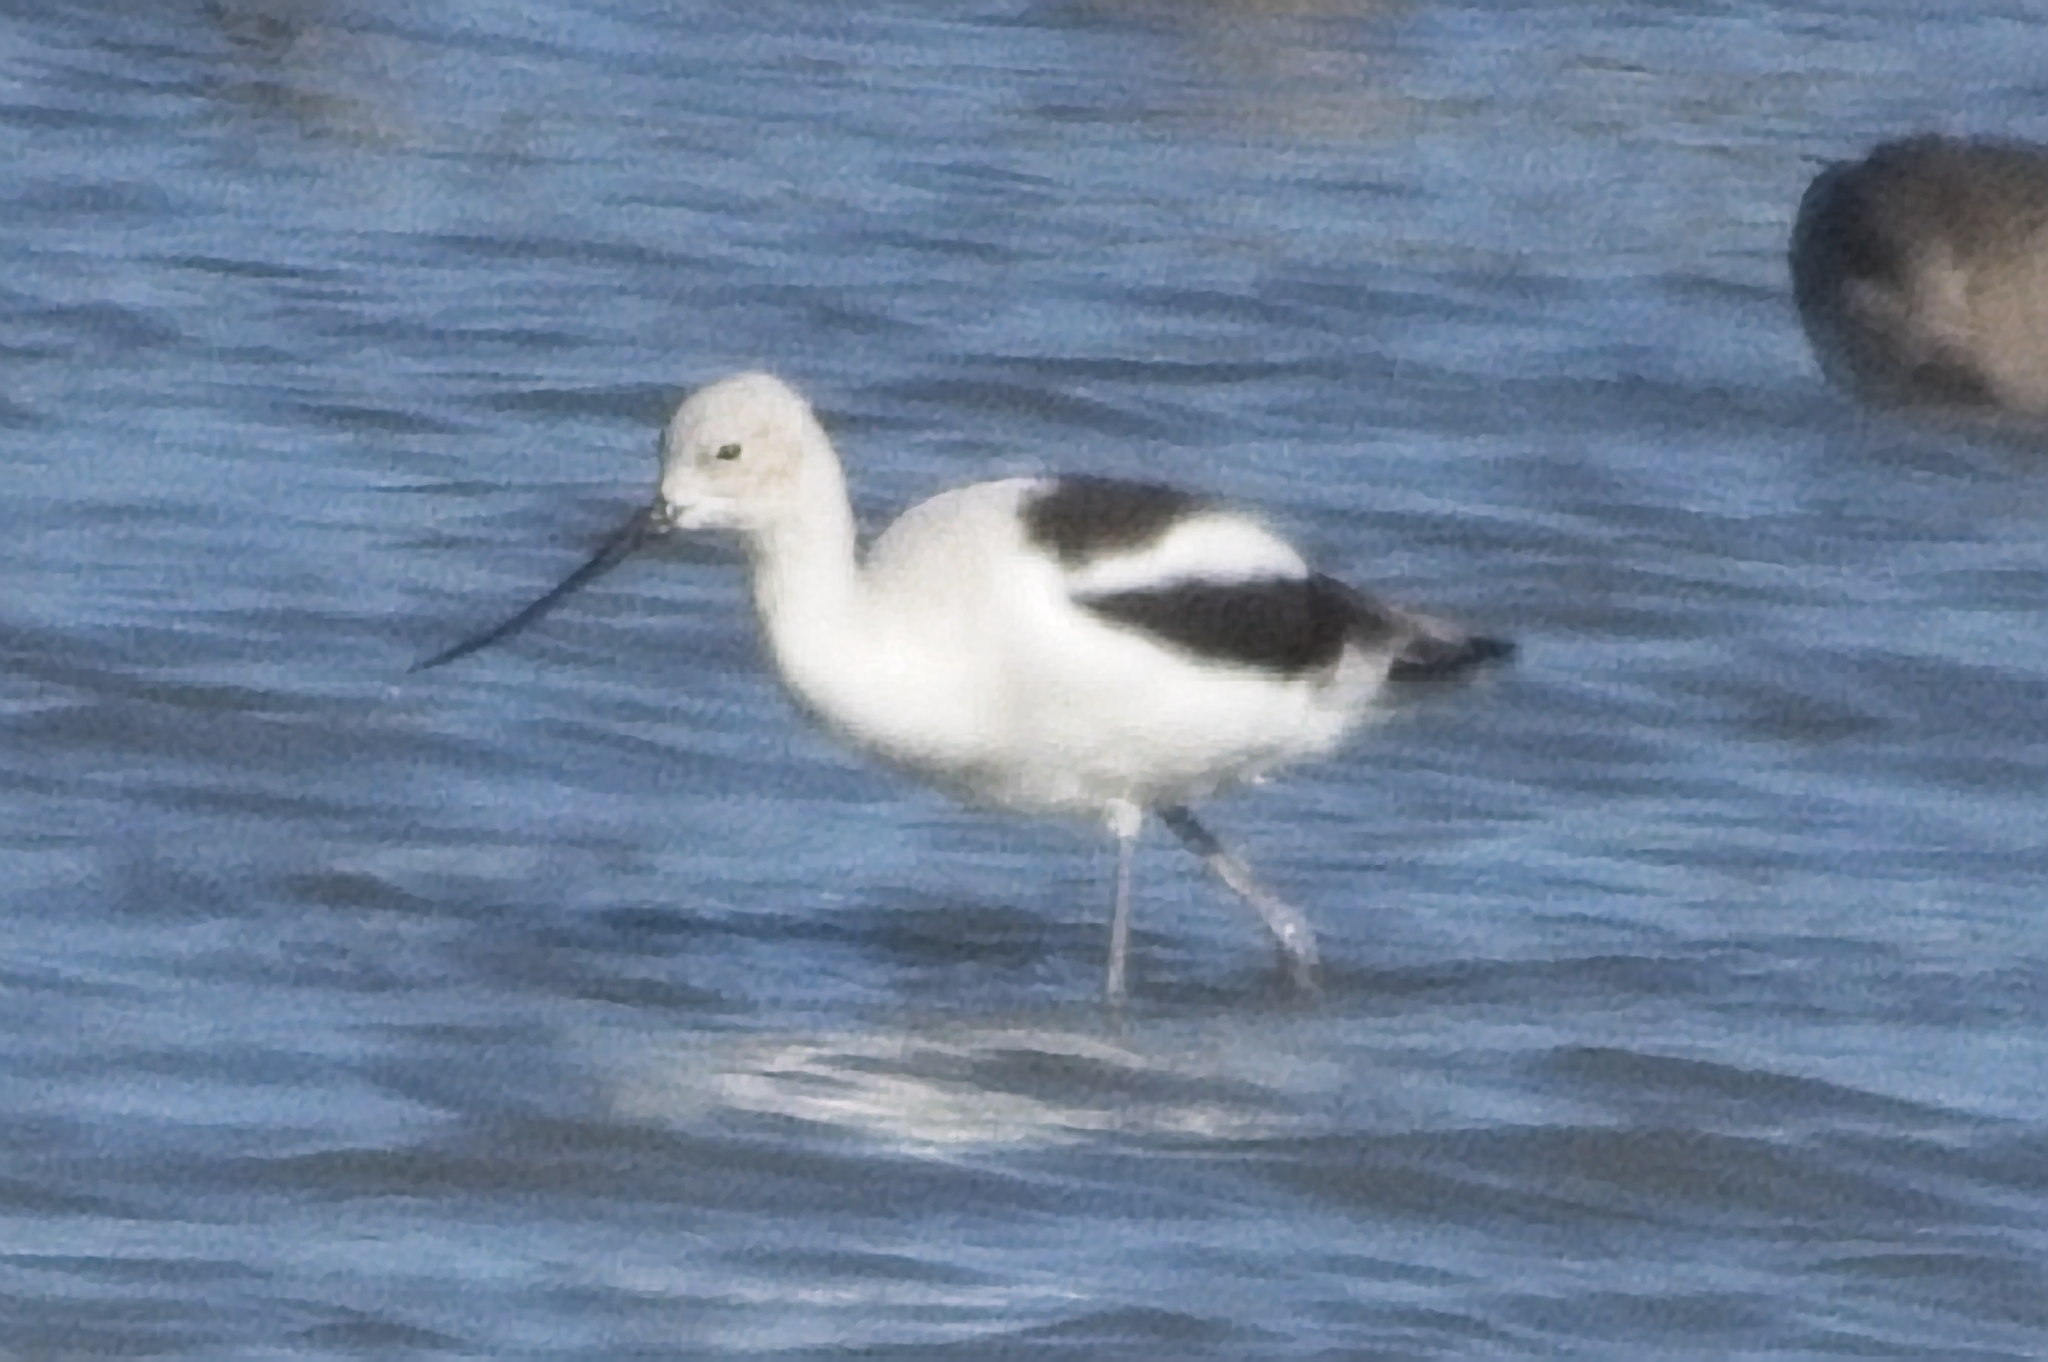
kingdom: Animalia
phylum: Chordata
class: Aves
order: Charadriiformes
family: Recurvirostridae
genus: Recurvirostra
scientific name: Recurvirostra americana
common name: American avocet
